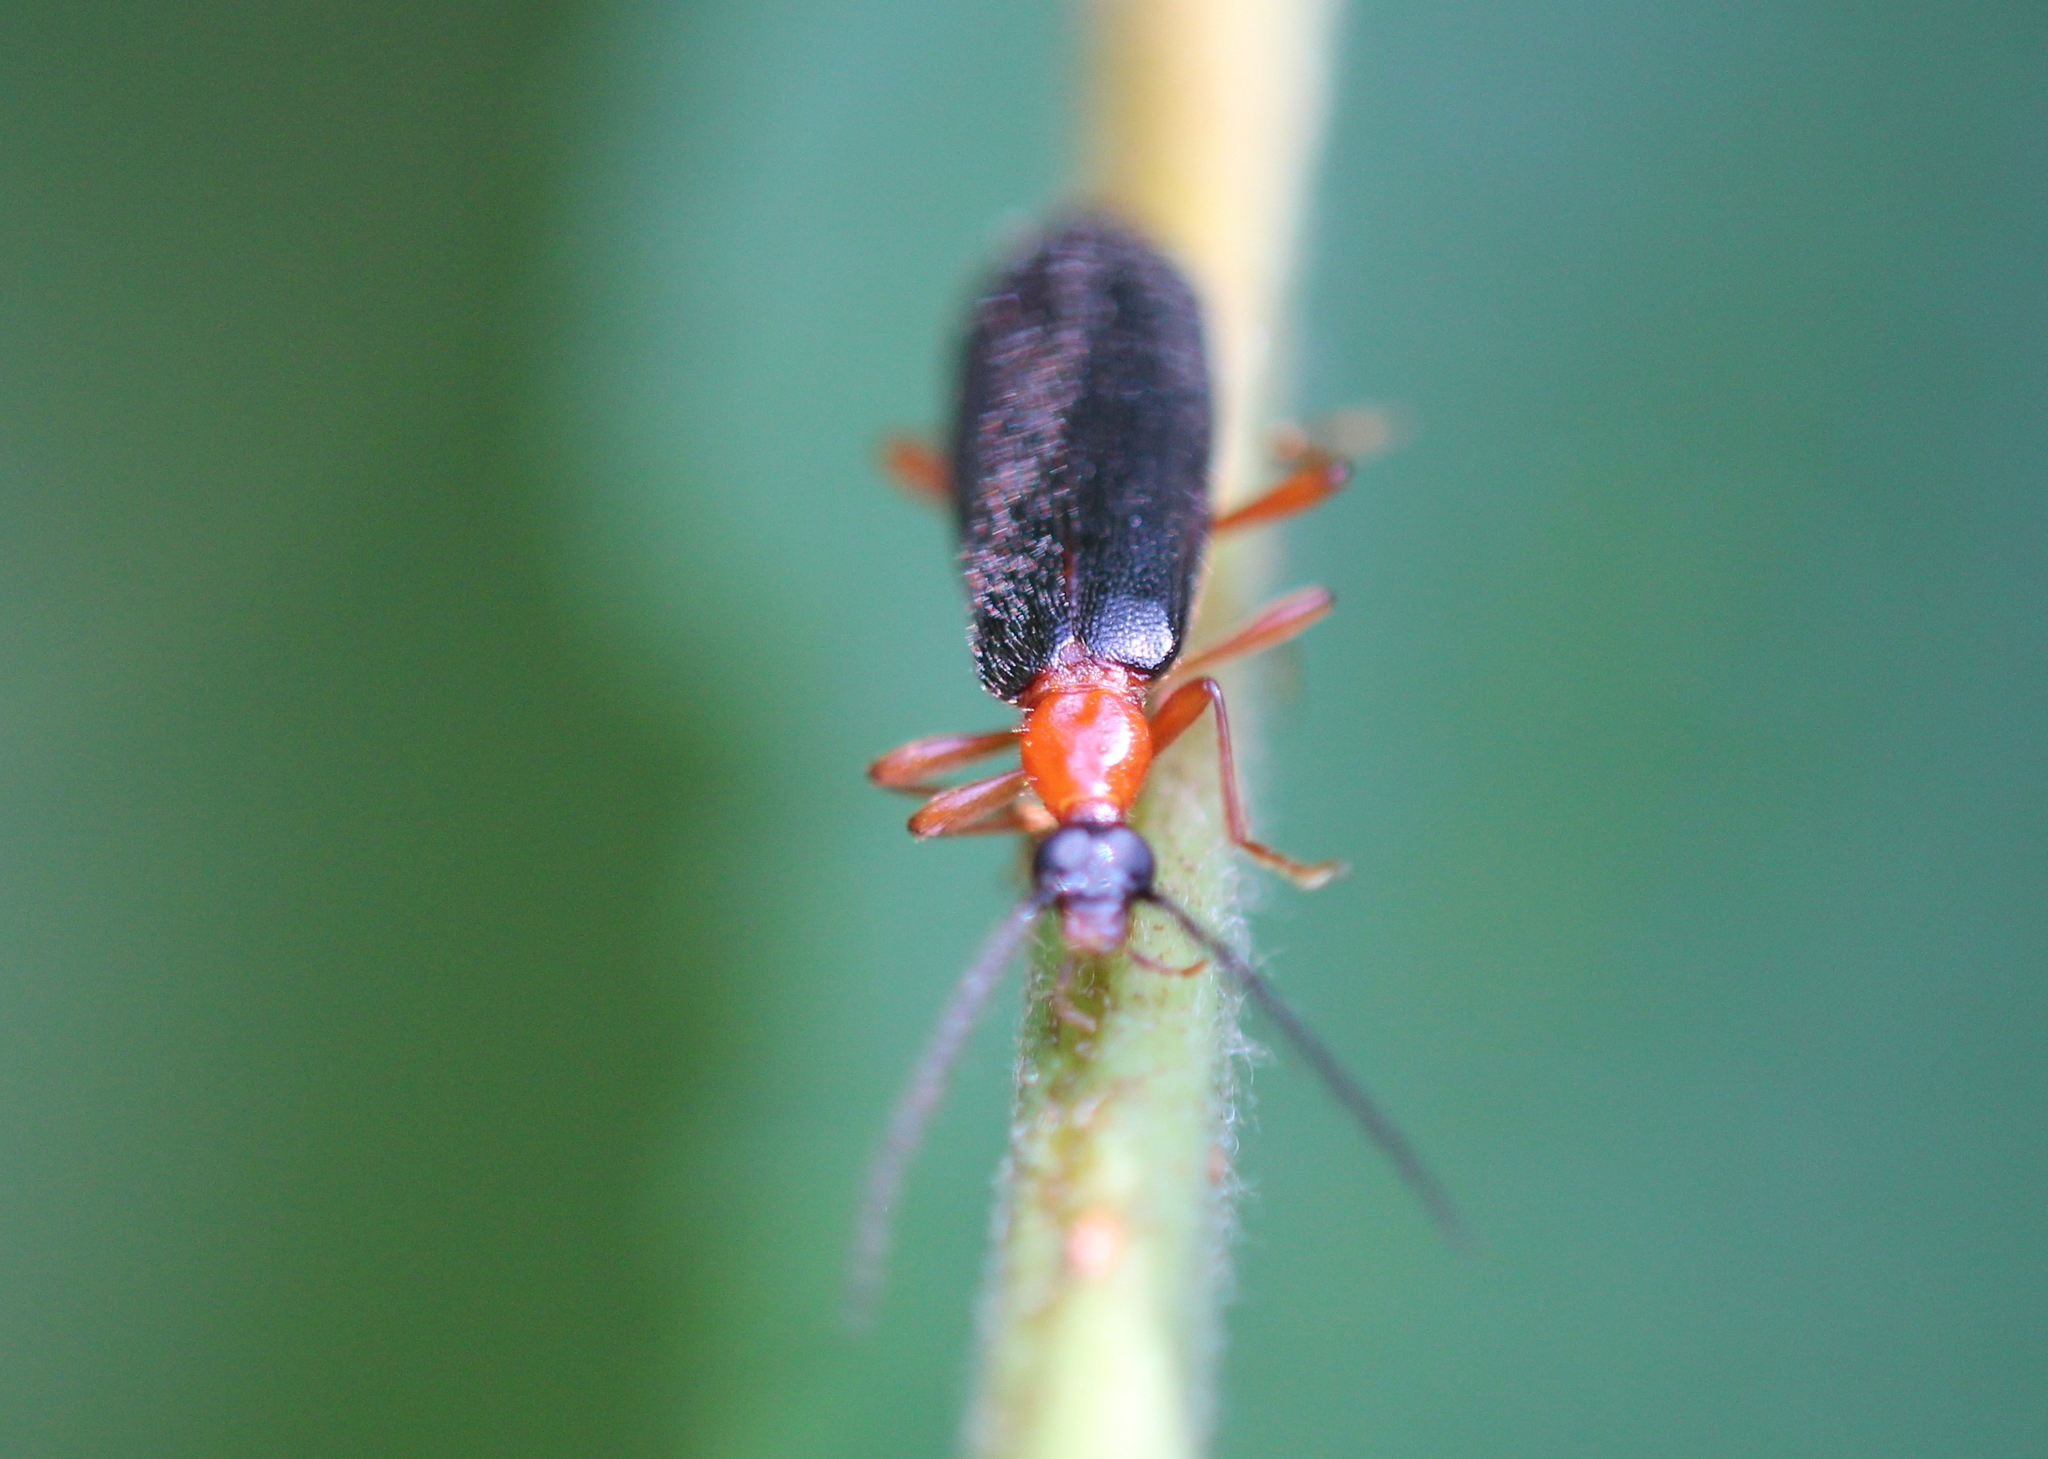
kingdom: Animalia
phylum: Arthropoda
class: Insecta
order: Coleoptera
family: Pyrochroidae
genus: Dendroides
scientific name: Dendroides canadensis
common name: Canada fire-colored beetle
